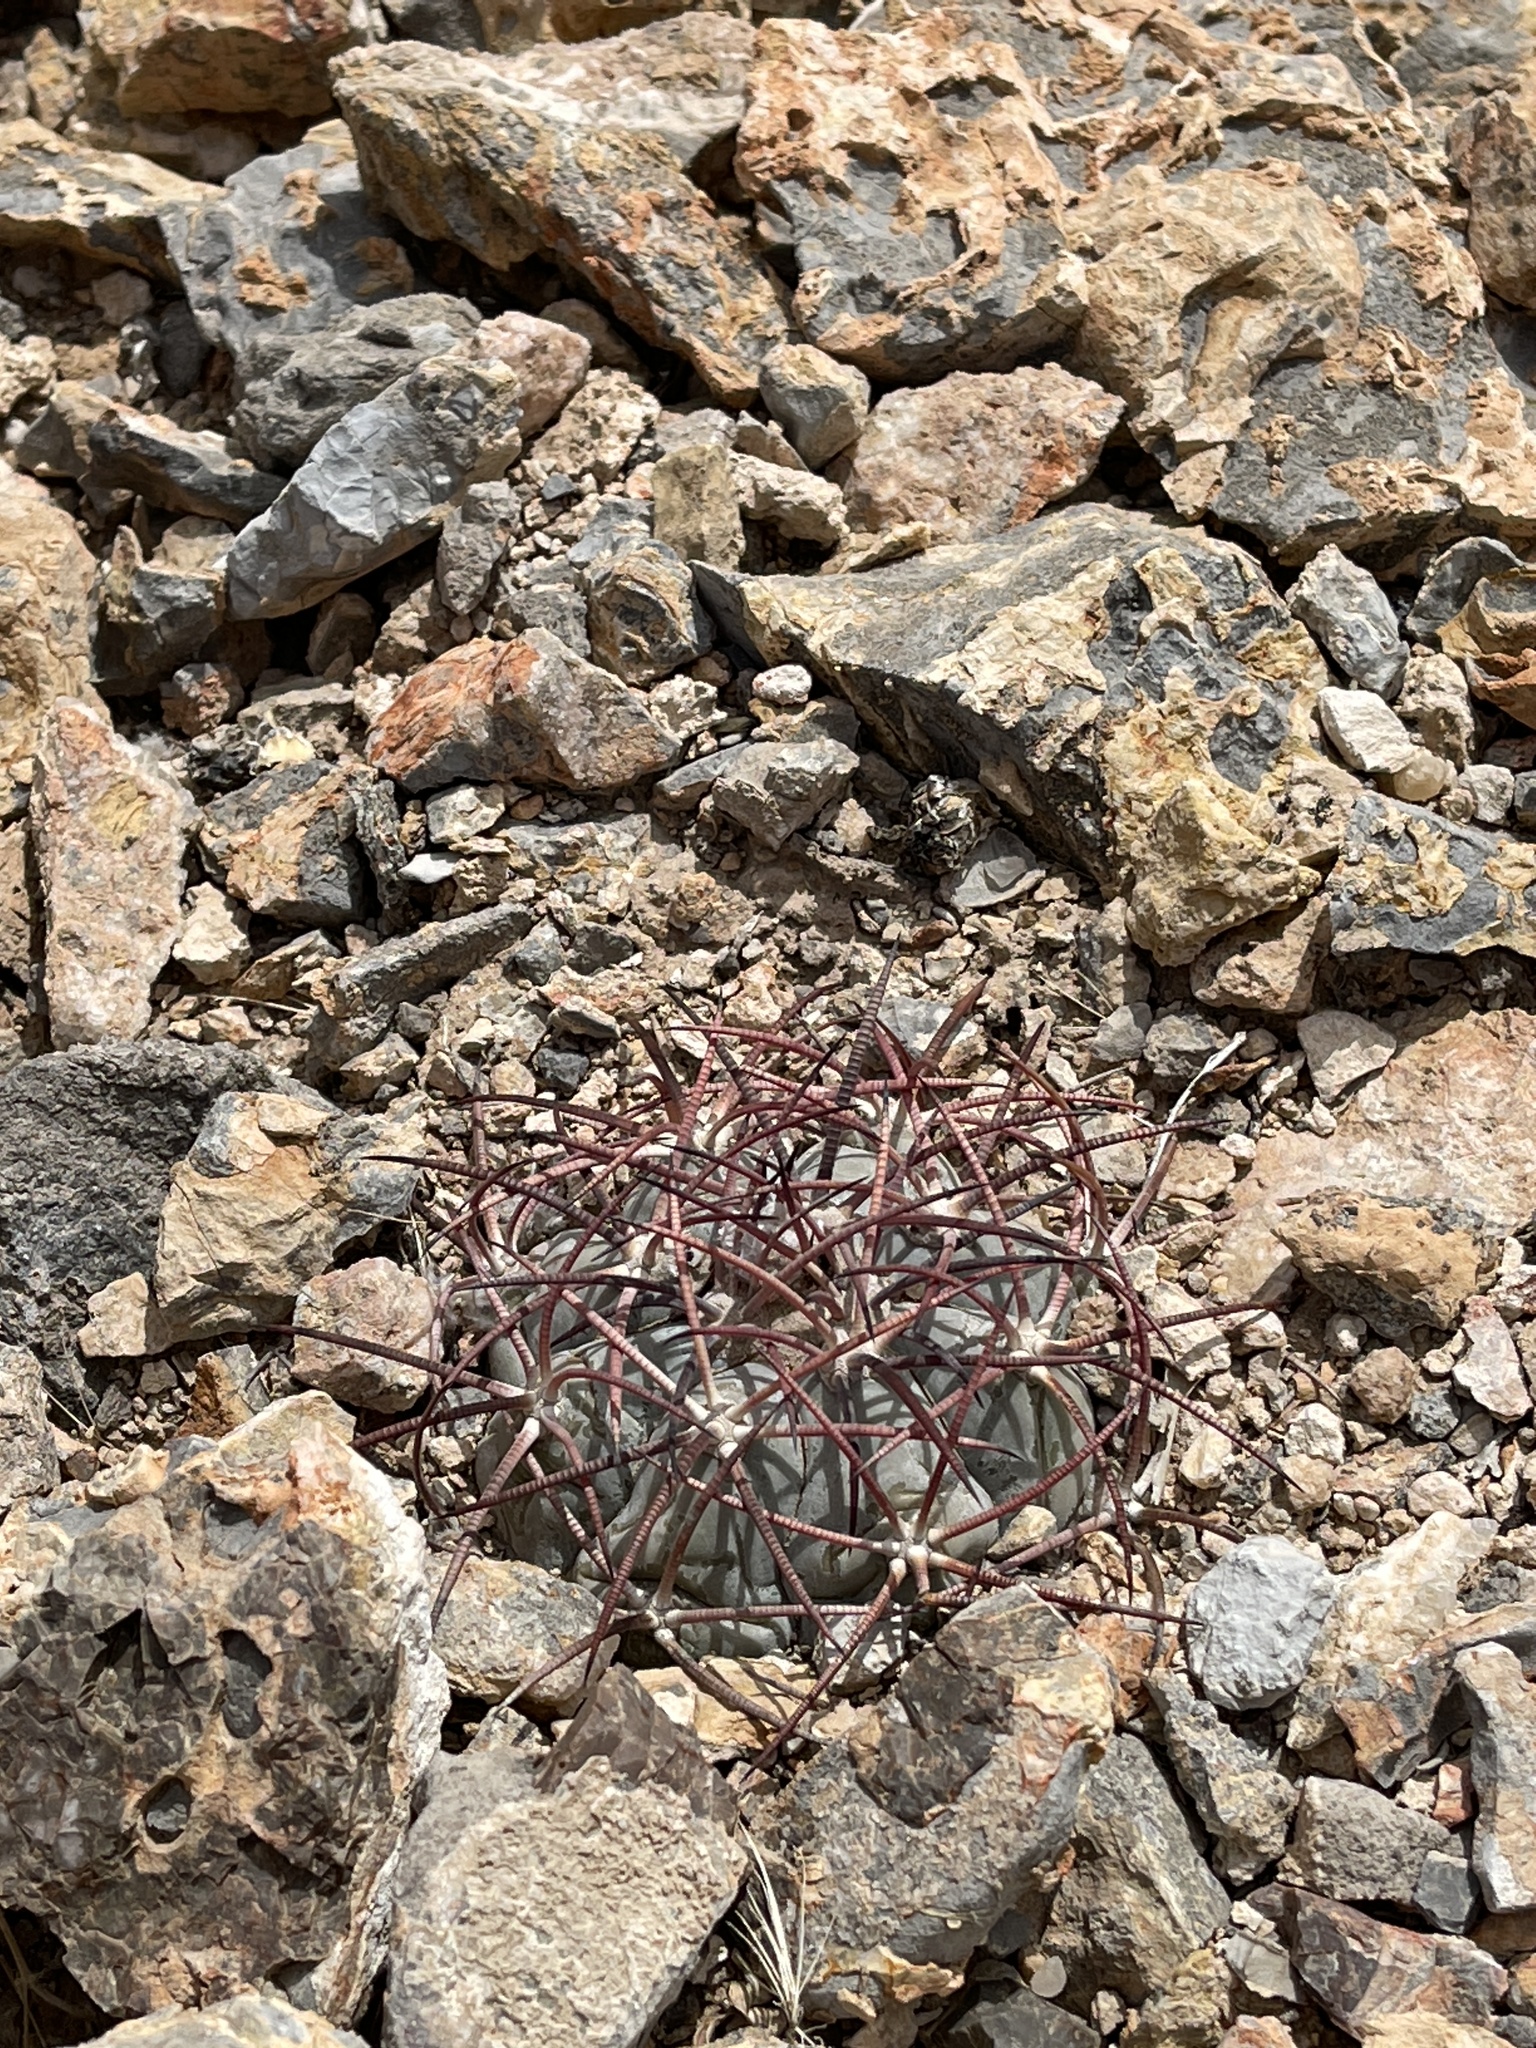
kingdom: Plantae
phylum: Tracheophyta
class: Magnoliopsida
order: Caryophyllales
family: Cactaceae
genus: Echinocactus
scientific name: Echinocactus horizonthalonius
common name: Devilshead
